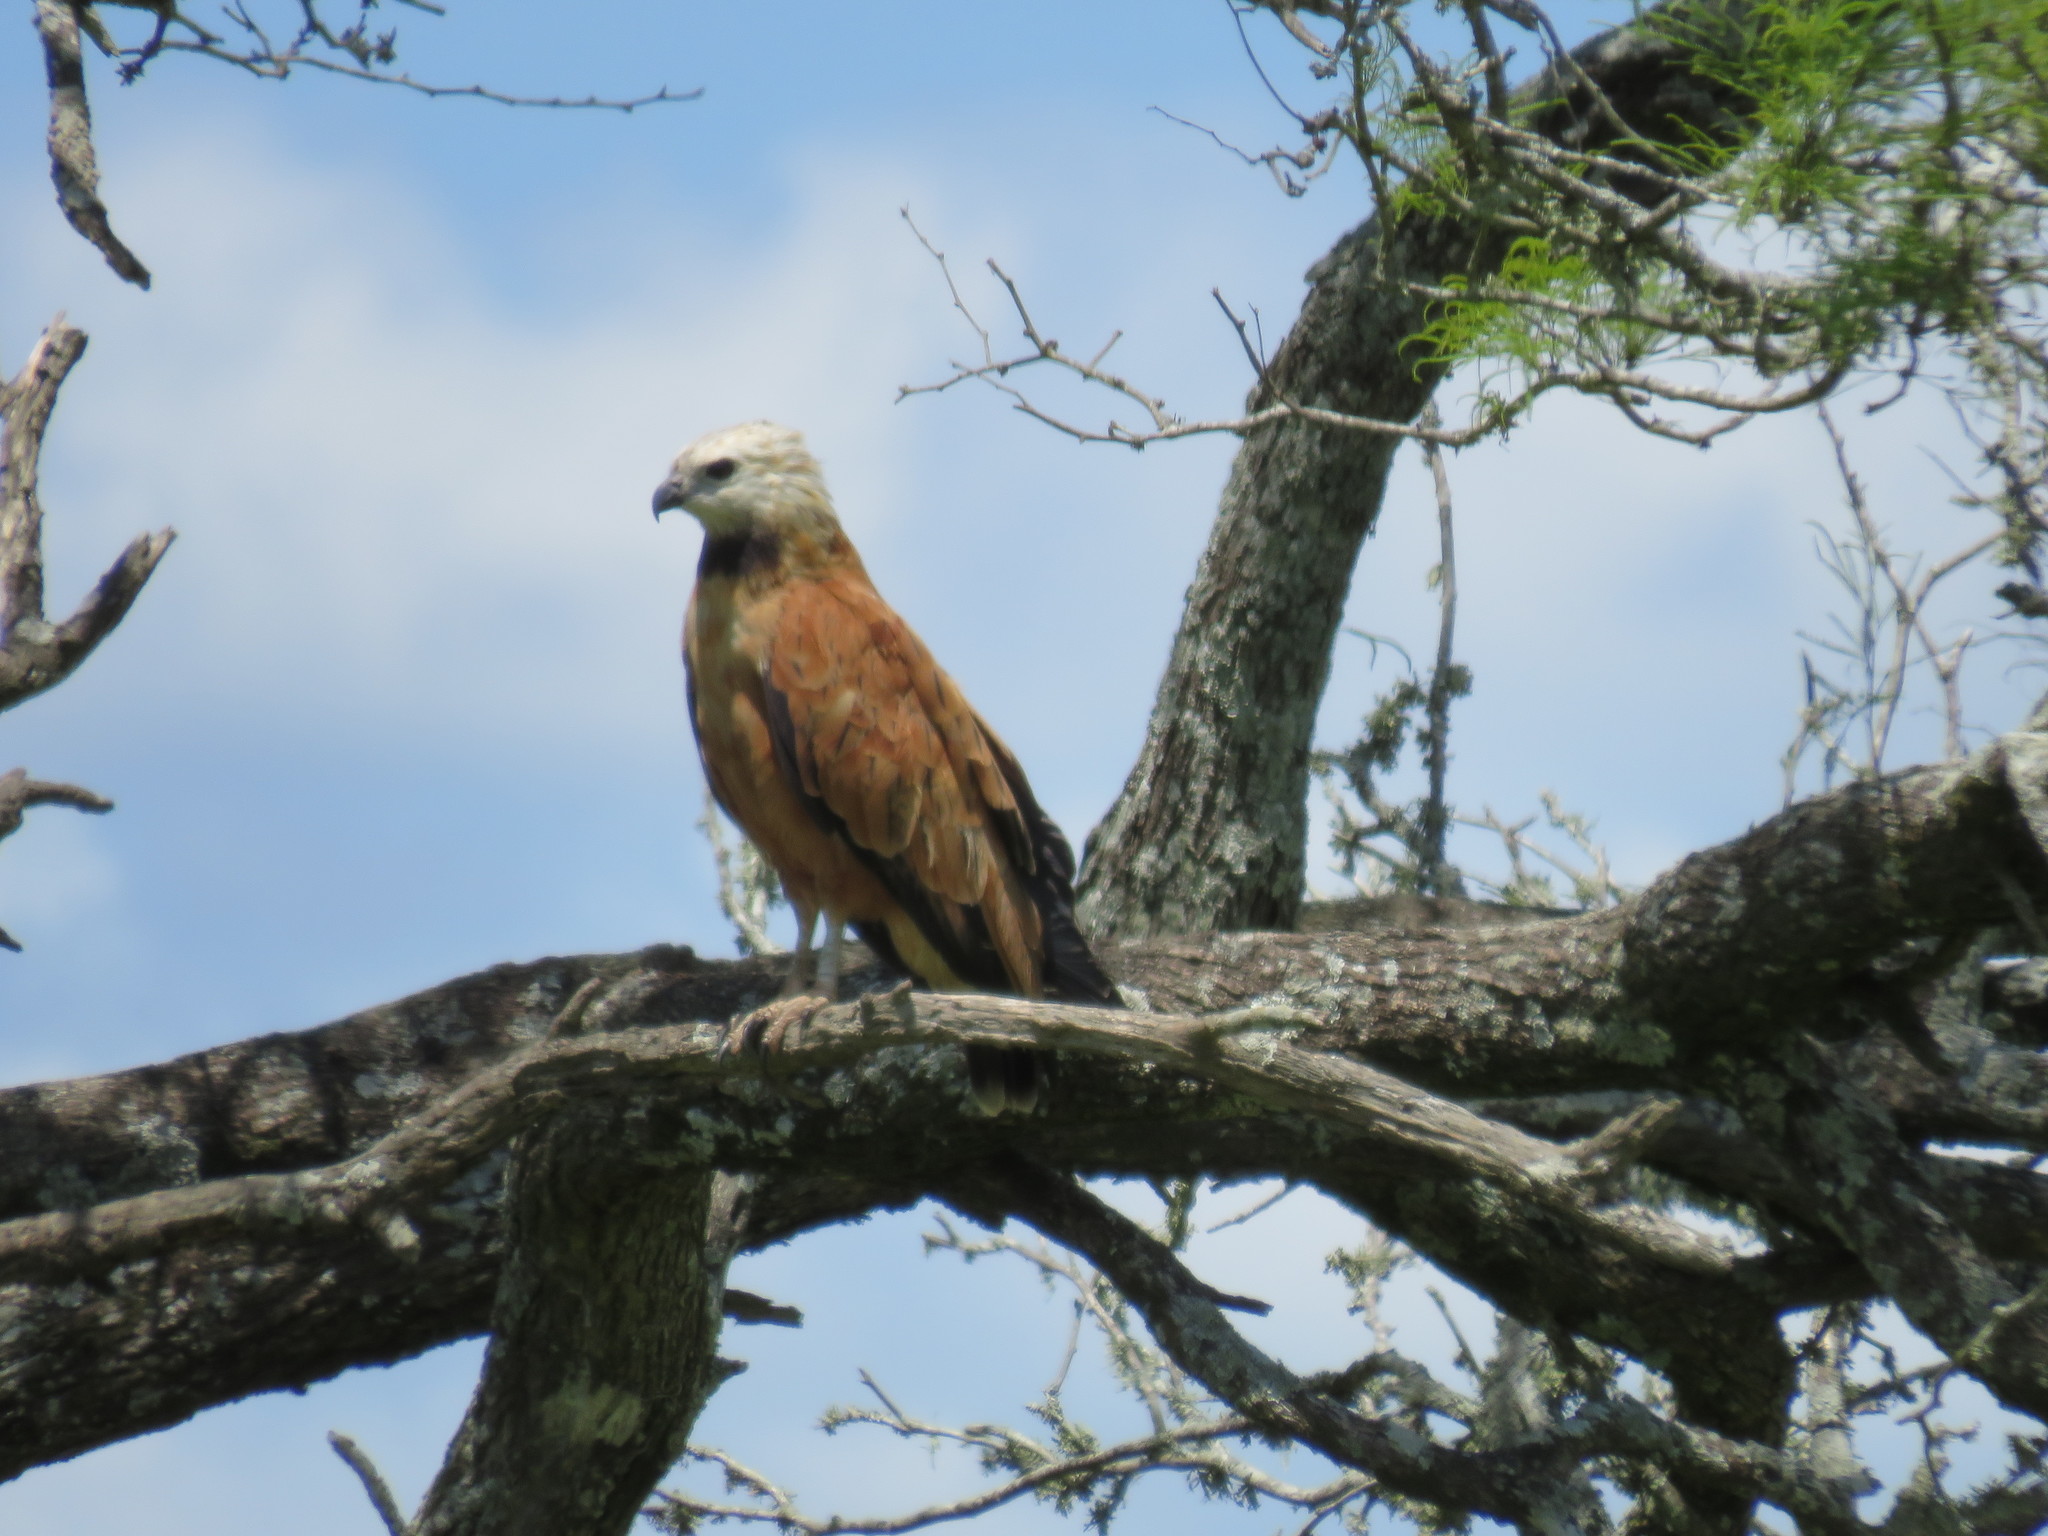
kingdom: Animalia
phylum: Chordata
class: Aves
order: Accipitriformes
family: Accipitridae
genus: Busarellus
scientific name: Busarellus nigricollis
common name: Black-collared hawk
